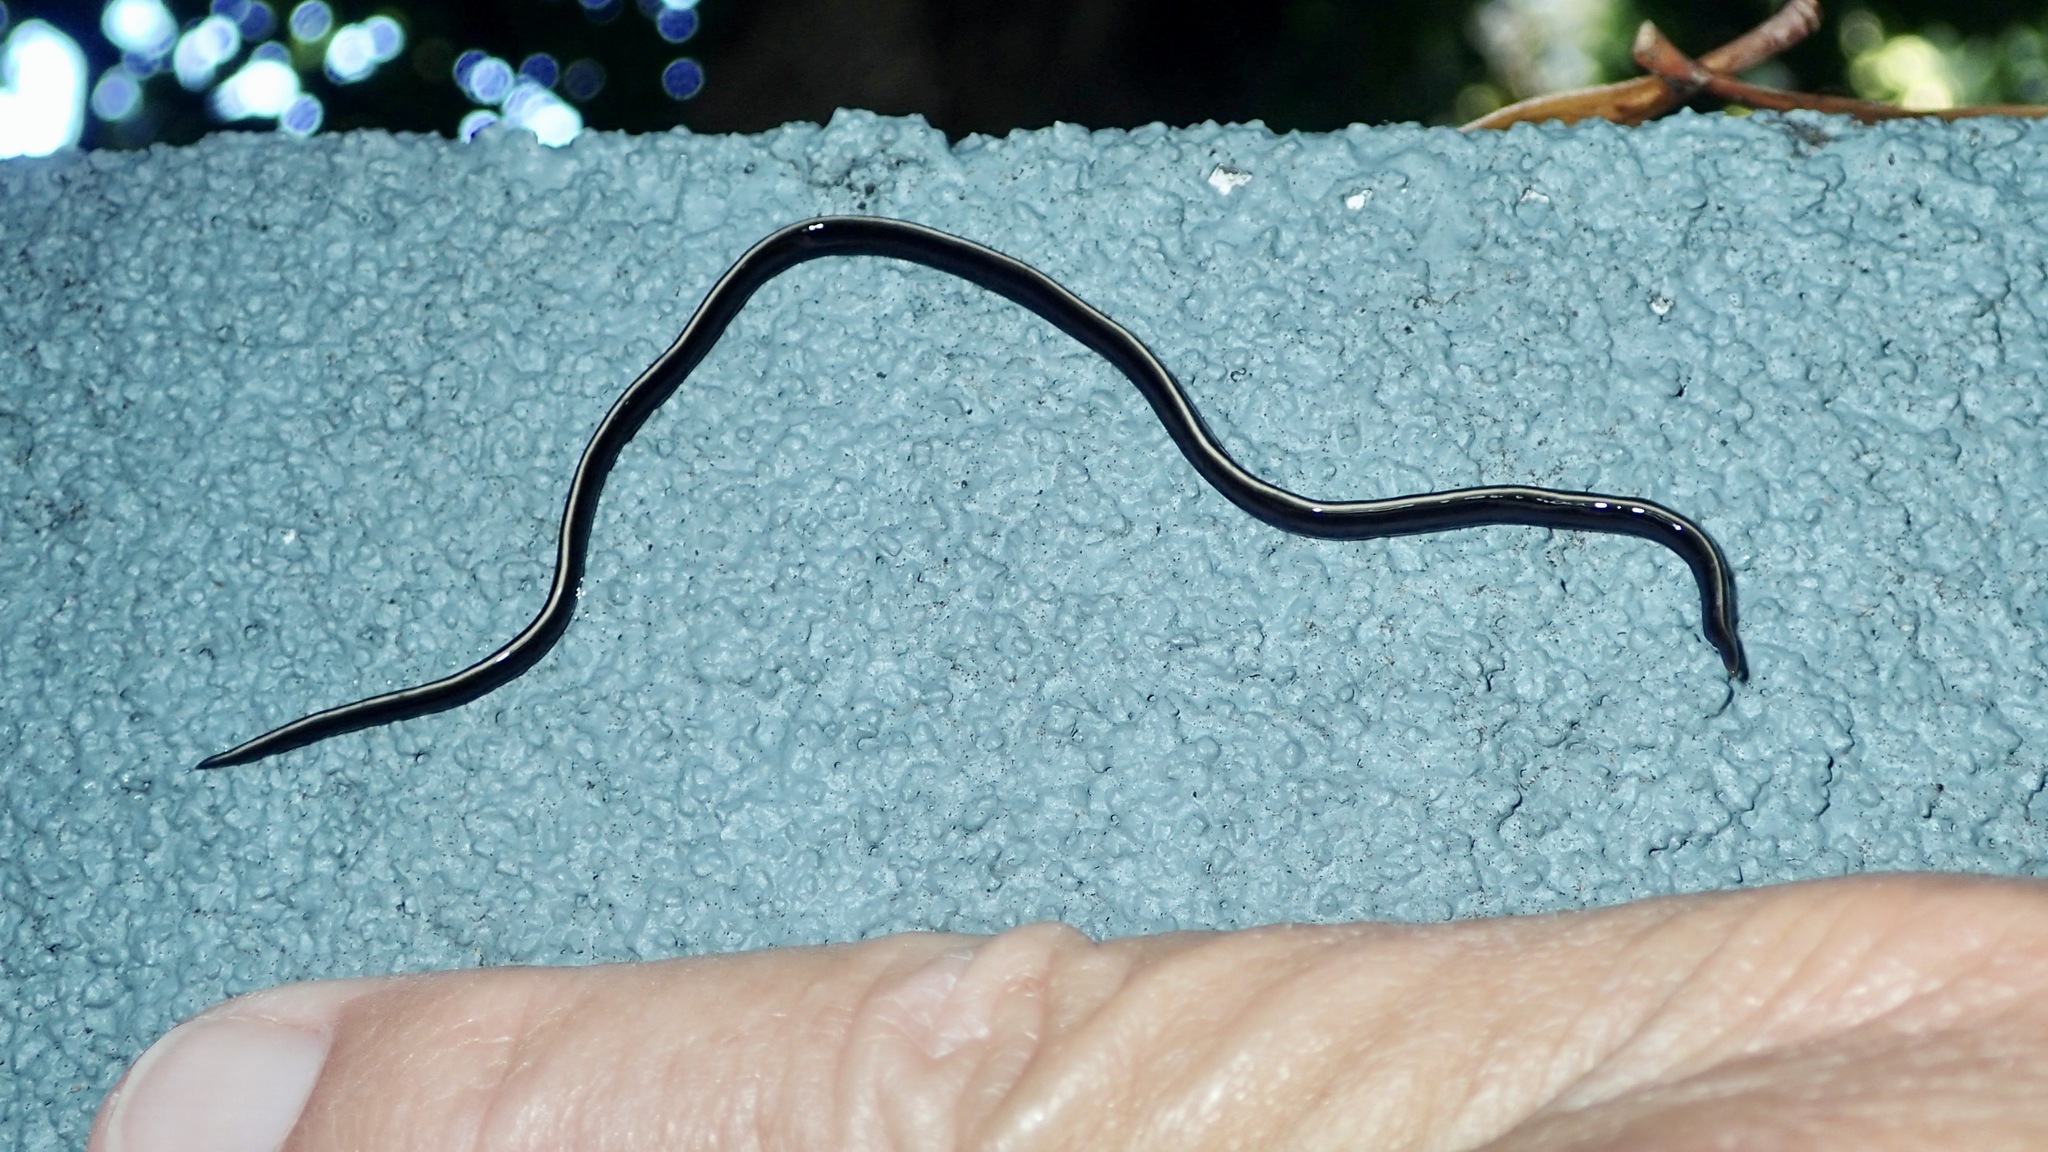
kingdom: Animalia
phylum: Platyhelminthes
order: Tricladida
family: Geoplanidae
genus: Caenoplana
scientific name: Caenoplana coerulea
